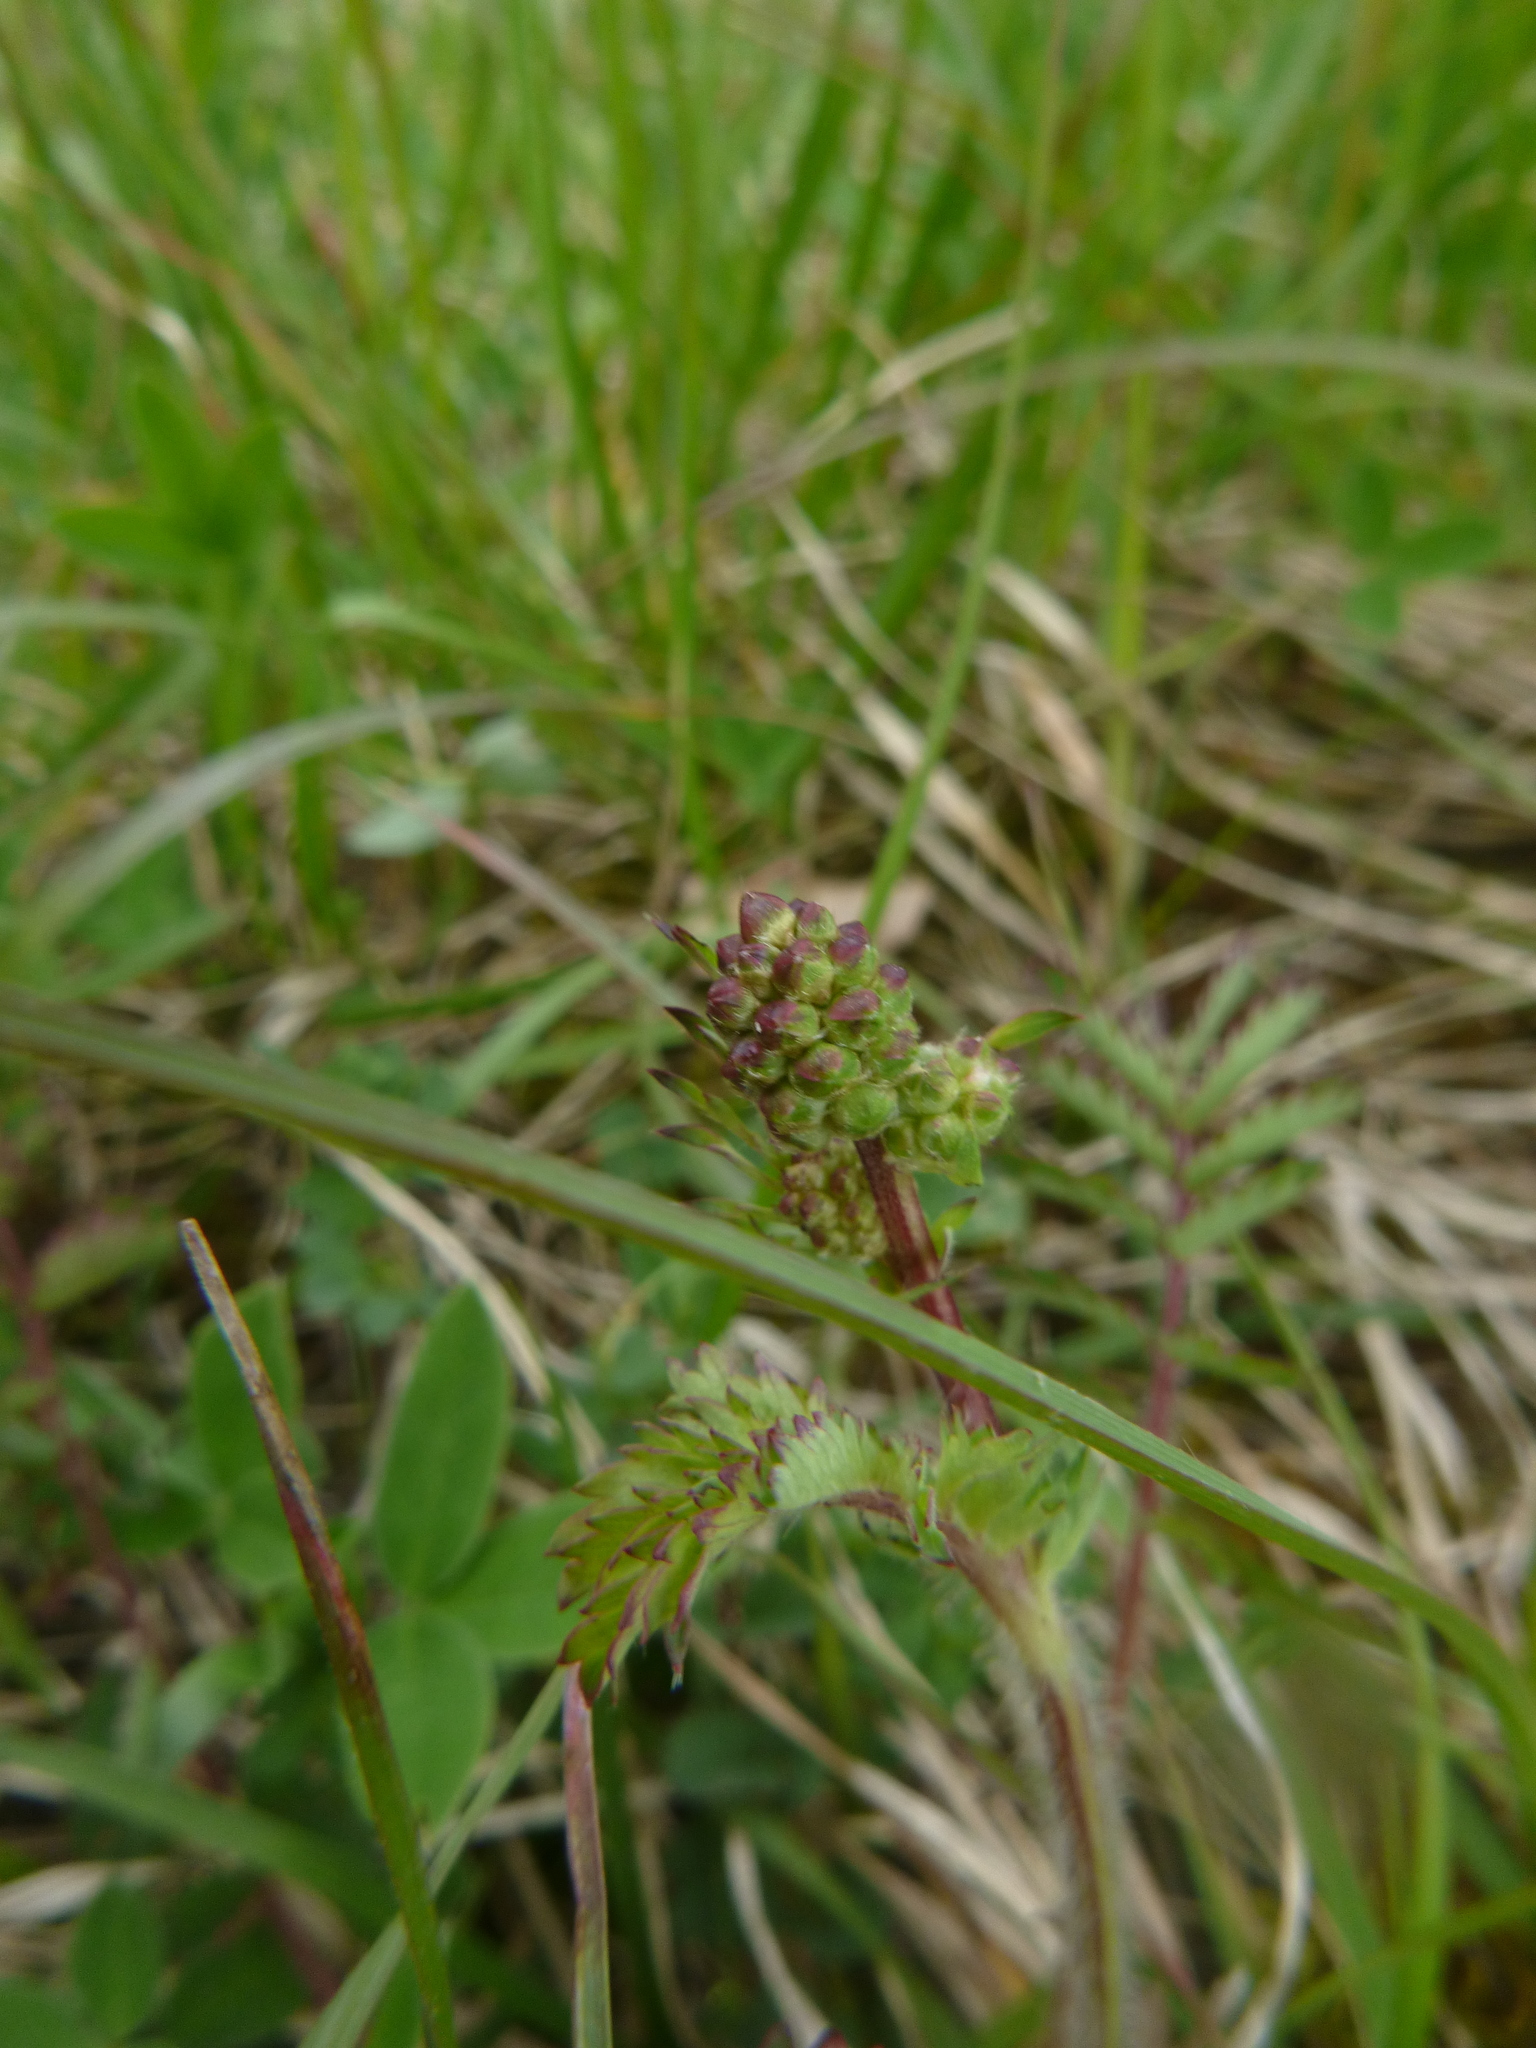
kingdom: Plantae
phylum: Tracheophyta
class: Magnoliopsida
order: Rosales
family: Rosaceae
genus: Poterium
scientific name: Poterium sanguisorba
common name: Salad burnet
